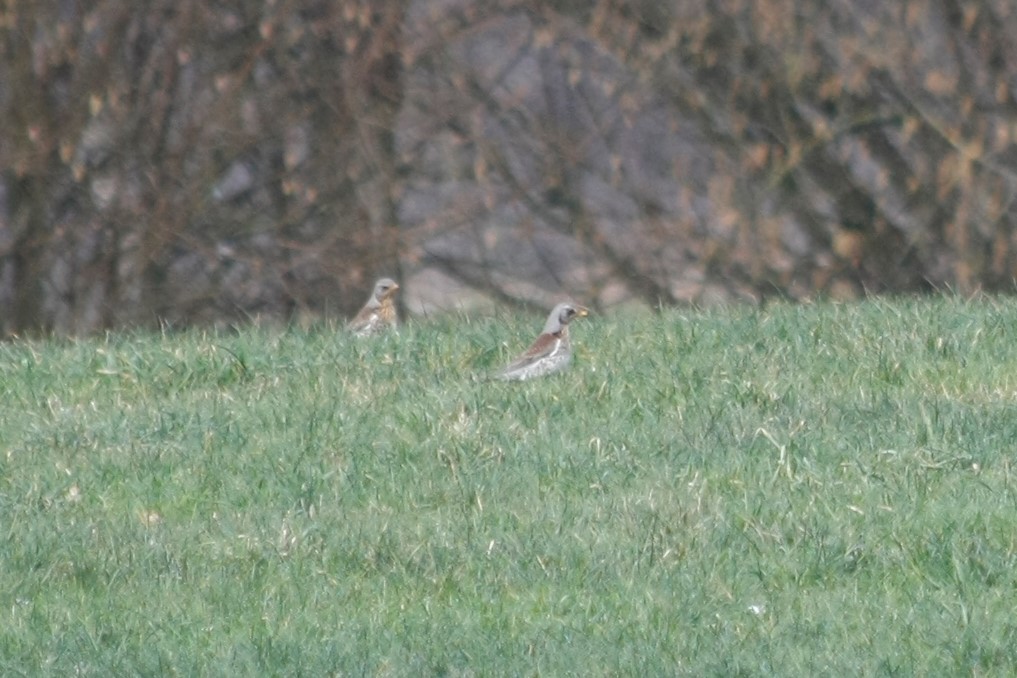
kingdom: Animalia
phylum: Chordata
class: Aves
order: Passeriformes
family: Turdidae
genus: Turdus
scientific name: Turdus pilaris
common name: Fieldfare
